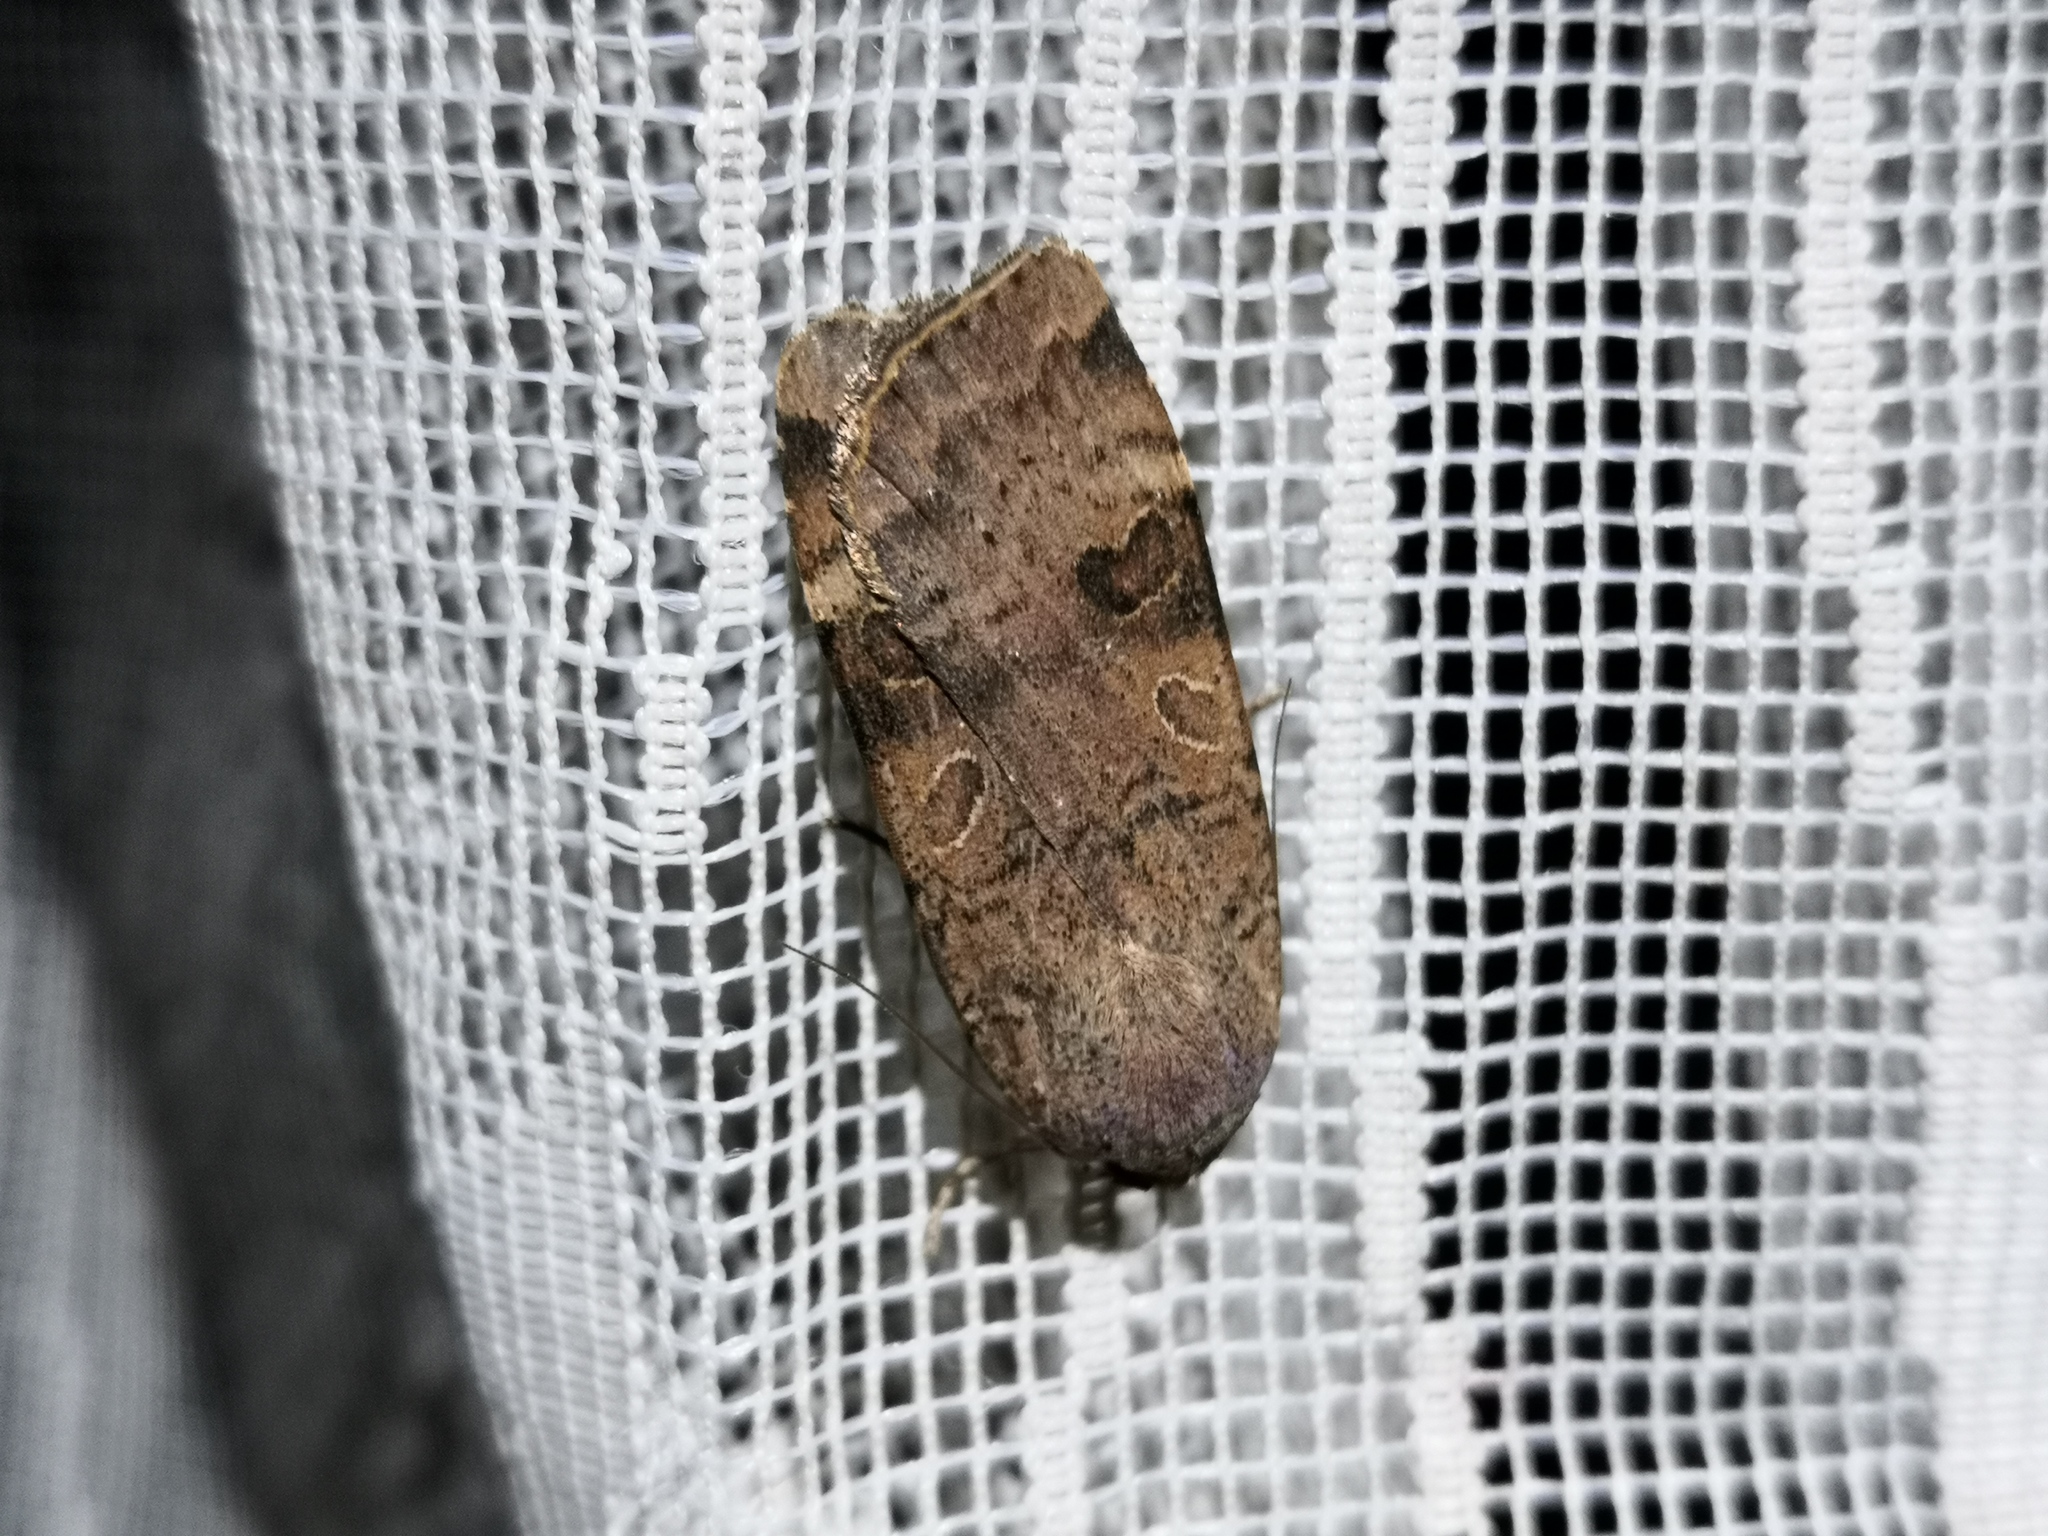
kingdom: Animalia
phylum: Arthropoda
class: Insecta
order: Lepidoptera
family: Noctuidae
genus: Noctua
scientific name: Noctua interposita
